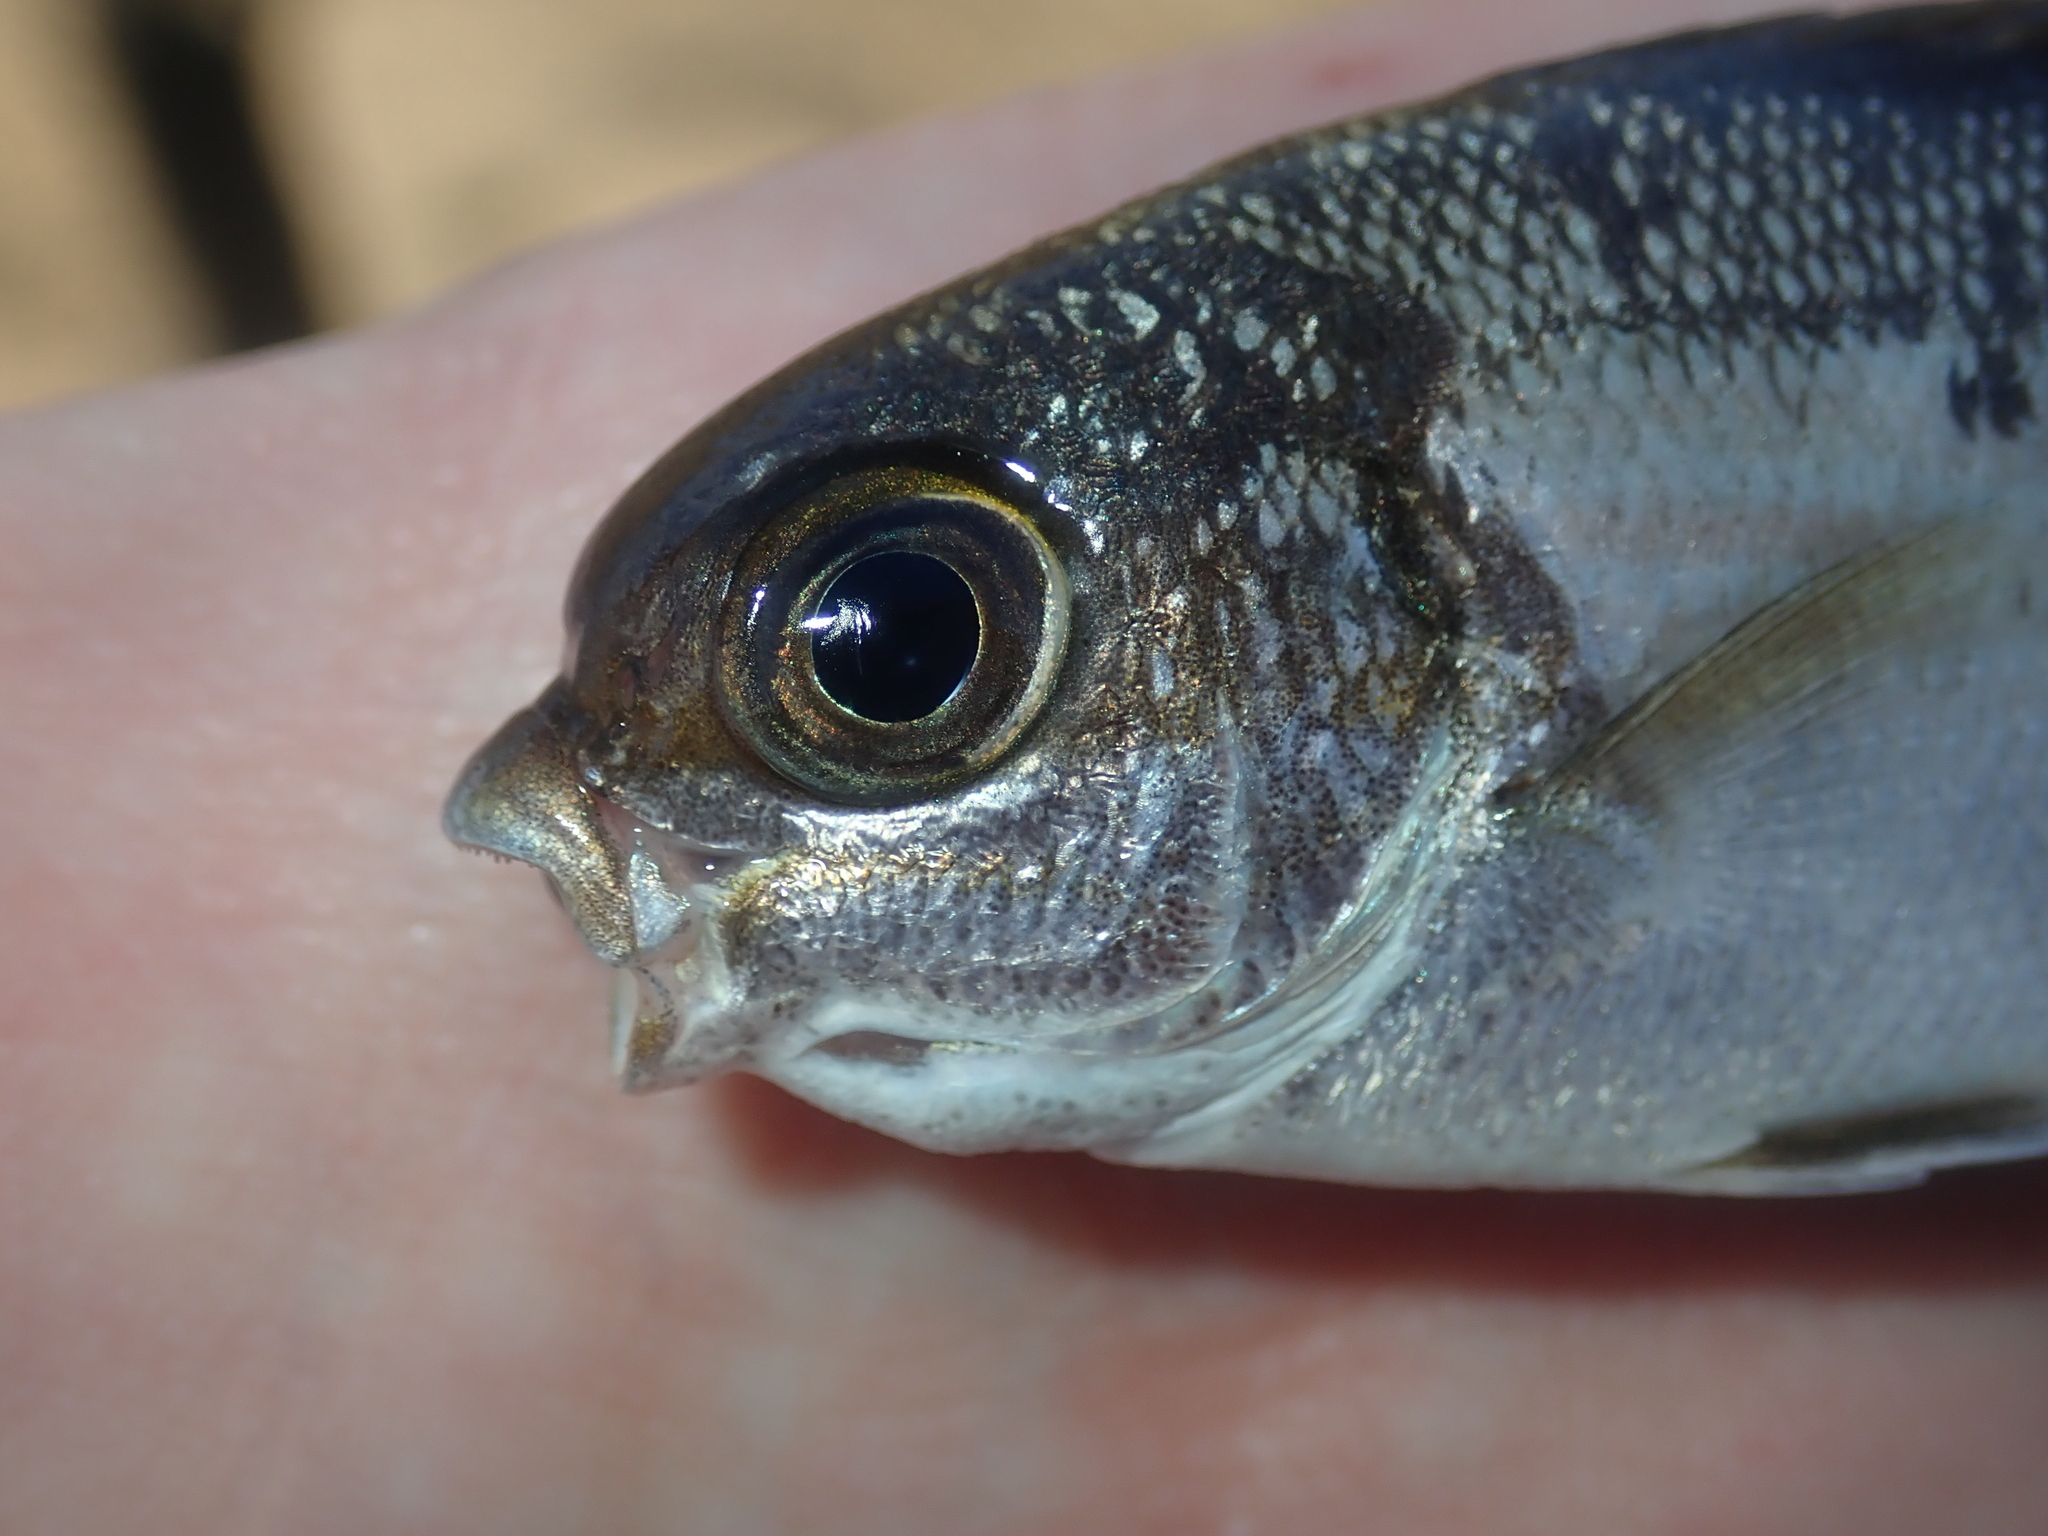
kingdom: Animalia
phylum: Chordata
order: Perciformes
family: Kyphosidae
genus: Kyphosus
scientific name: Kyphosus cornelii
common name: Cornel's drummer
